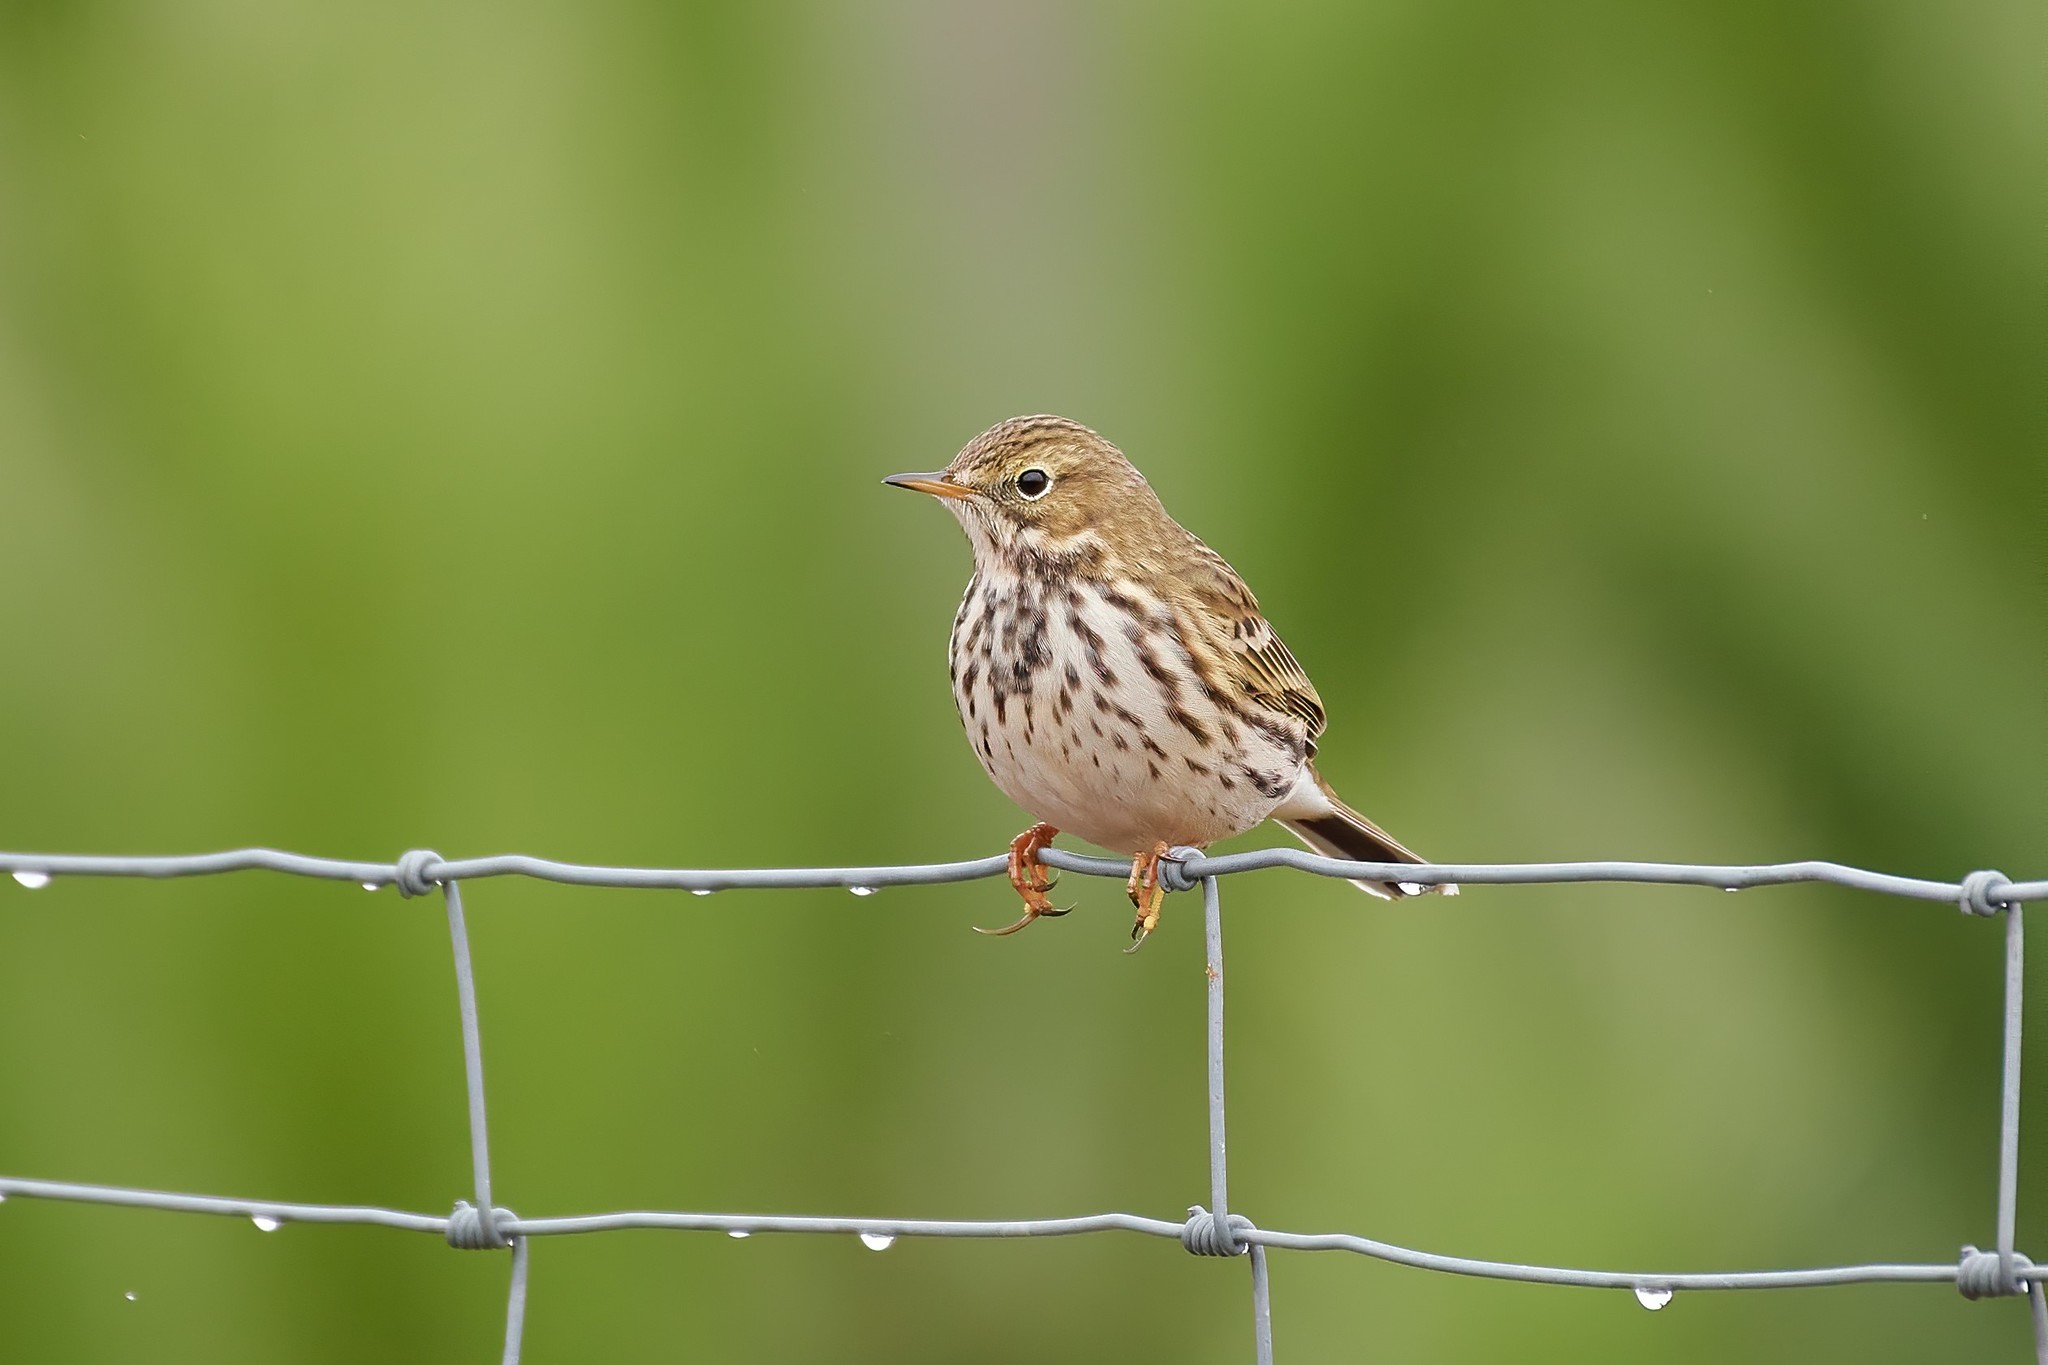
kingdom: Animalia
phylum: Chordata
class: Aves
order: Passeriformes
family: Motacillidae
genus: Anthus
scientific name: Anthus pratensis
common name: Meadow pipit
